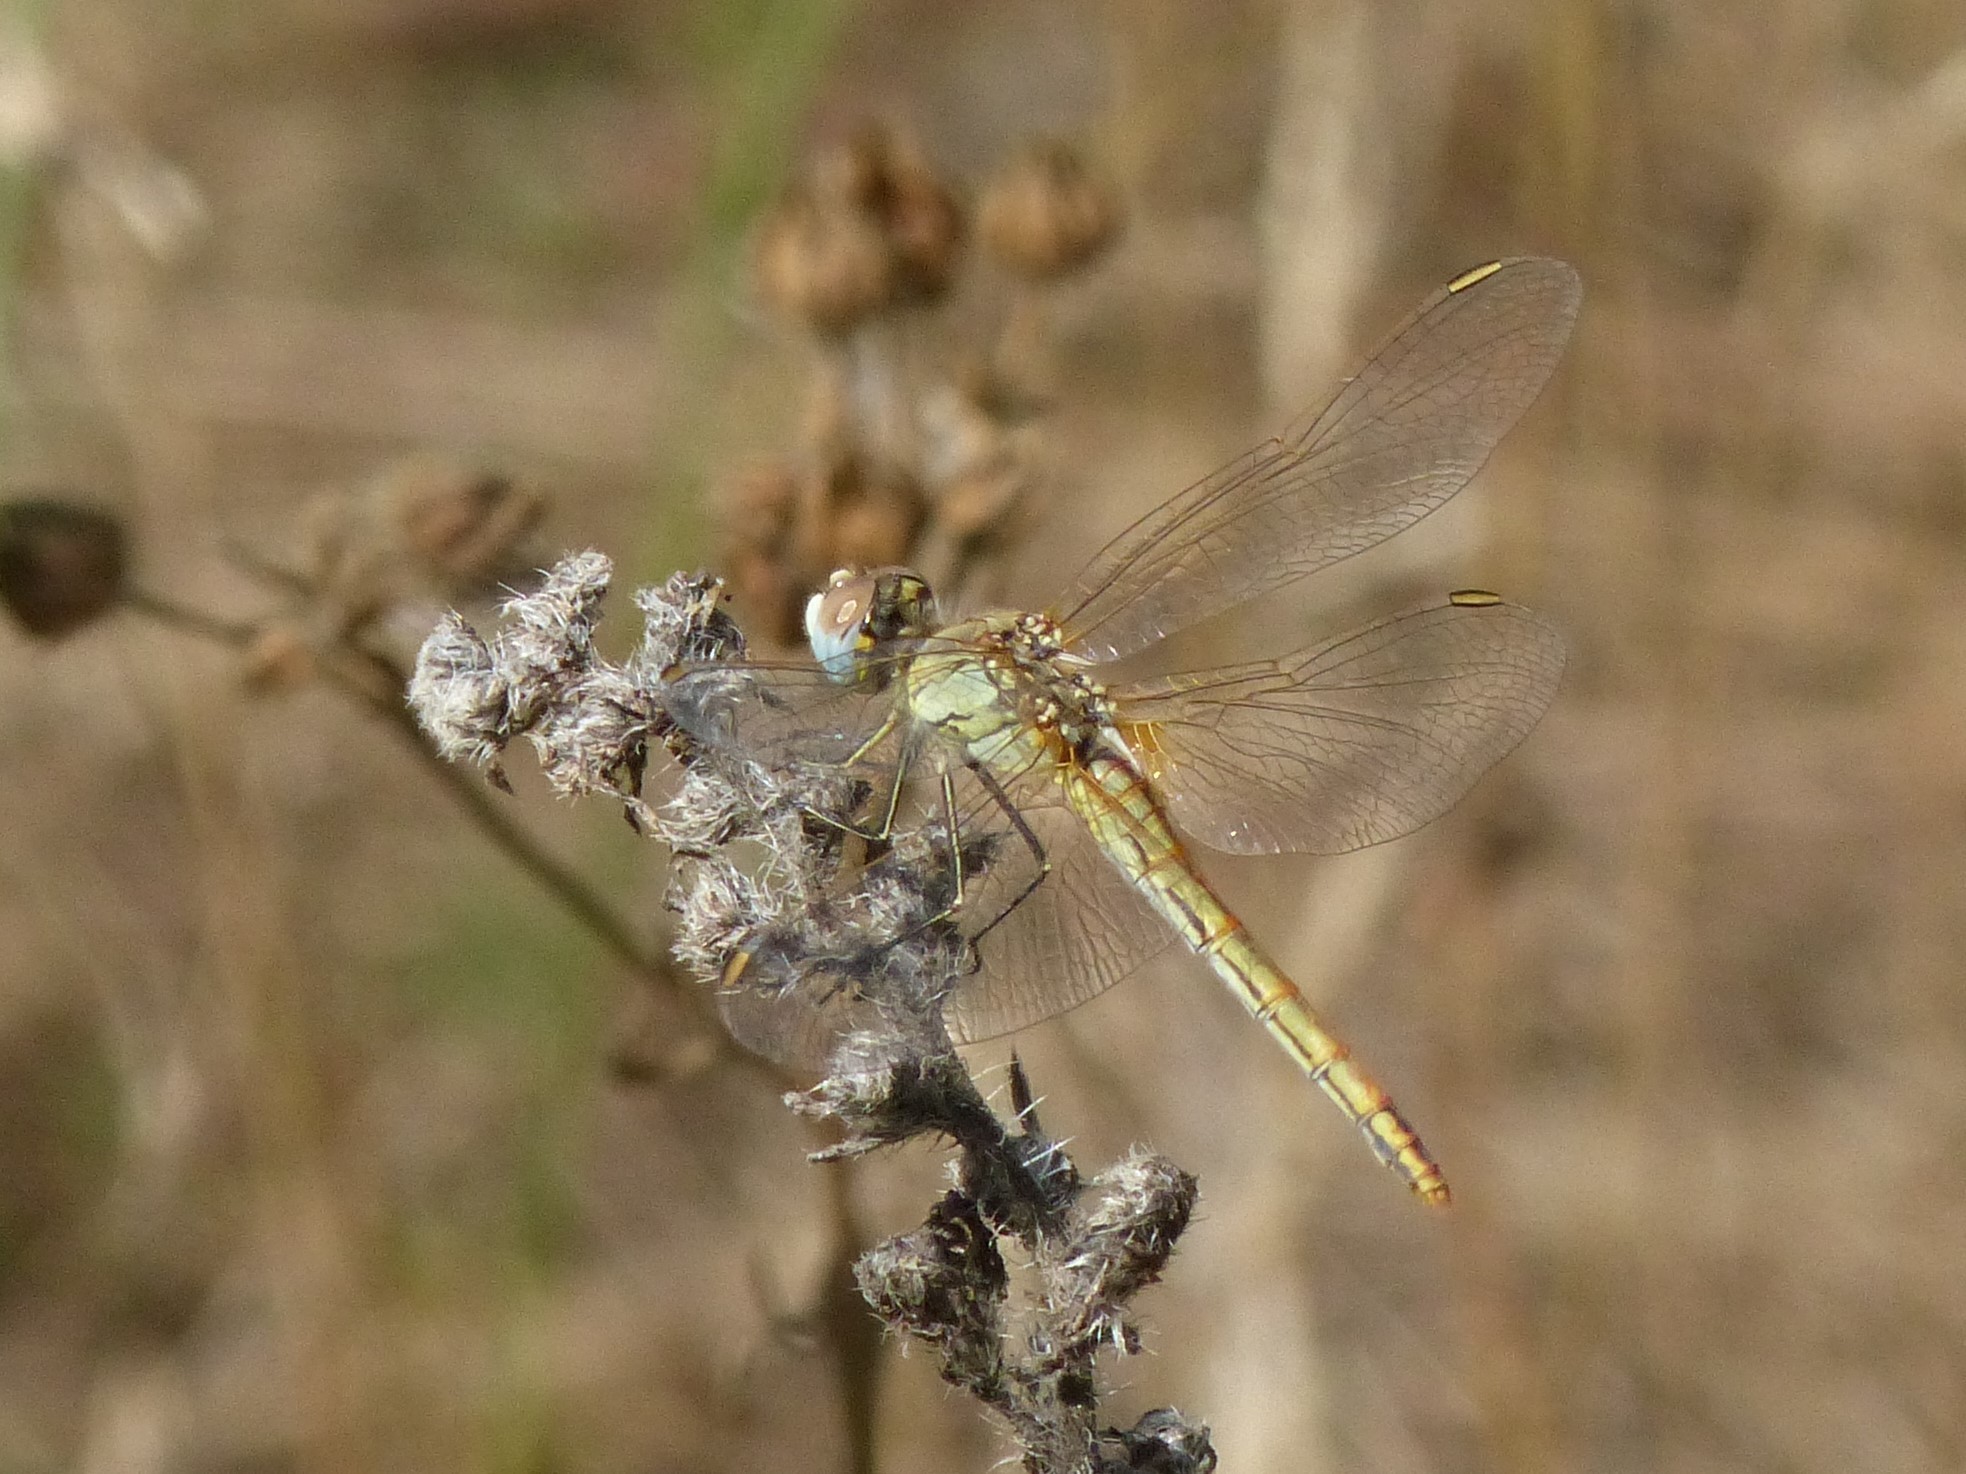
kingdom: Animalia
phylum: Arthropoda
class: Insecta
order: Odonata
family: Libellulidae
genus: Sympetrum
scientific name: Sympetrum fonscolombii
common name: Red-veined darter
